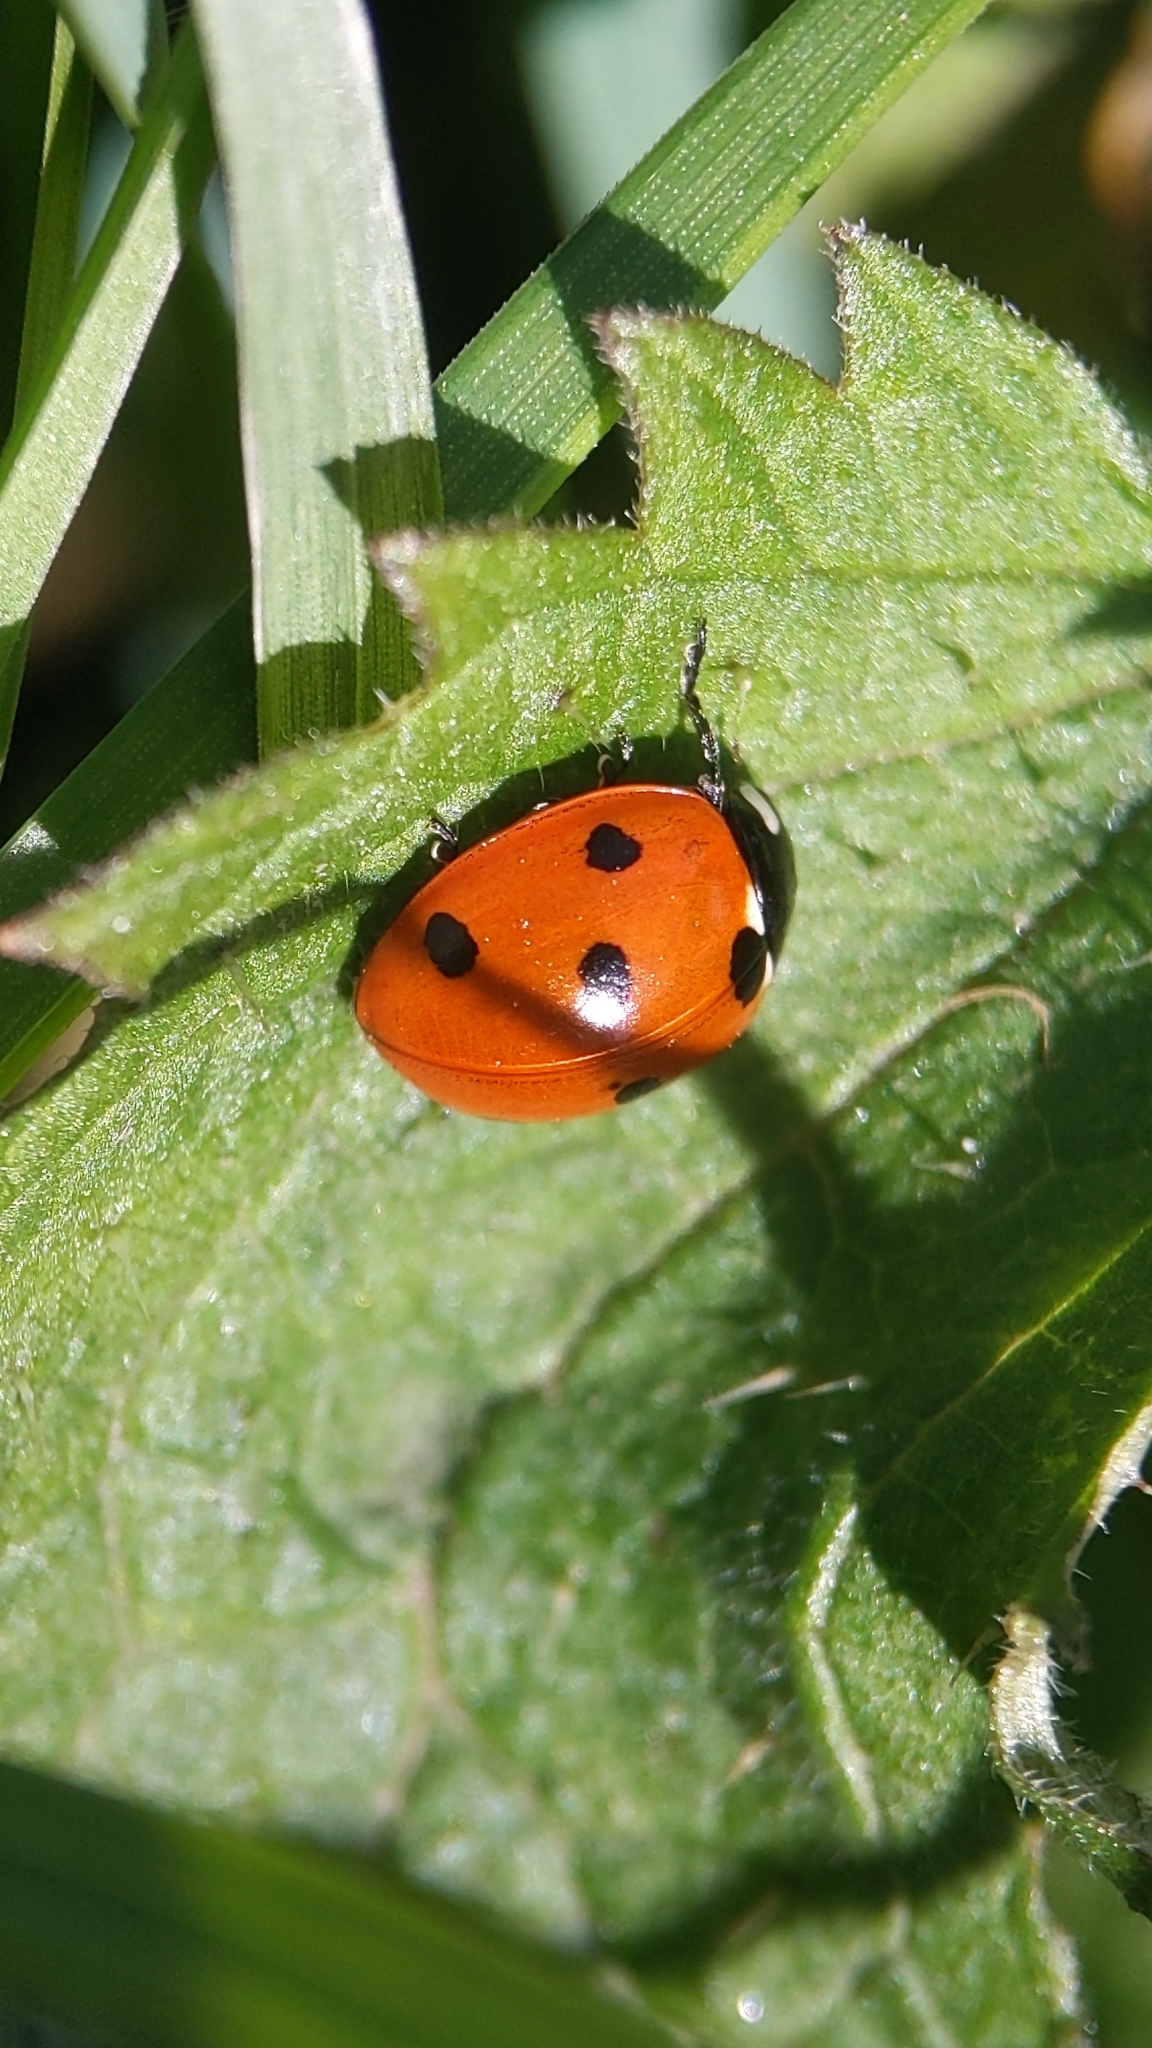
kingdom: Animalia
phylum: Arthropoda
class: Insecta
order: Coleoptera
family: Coccinellidae
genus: Coccinella
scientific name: Coccinella septempunctata
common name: Sevenspotted lady beetle
